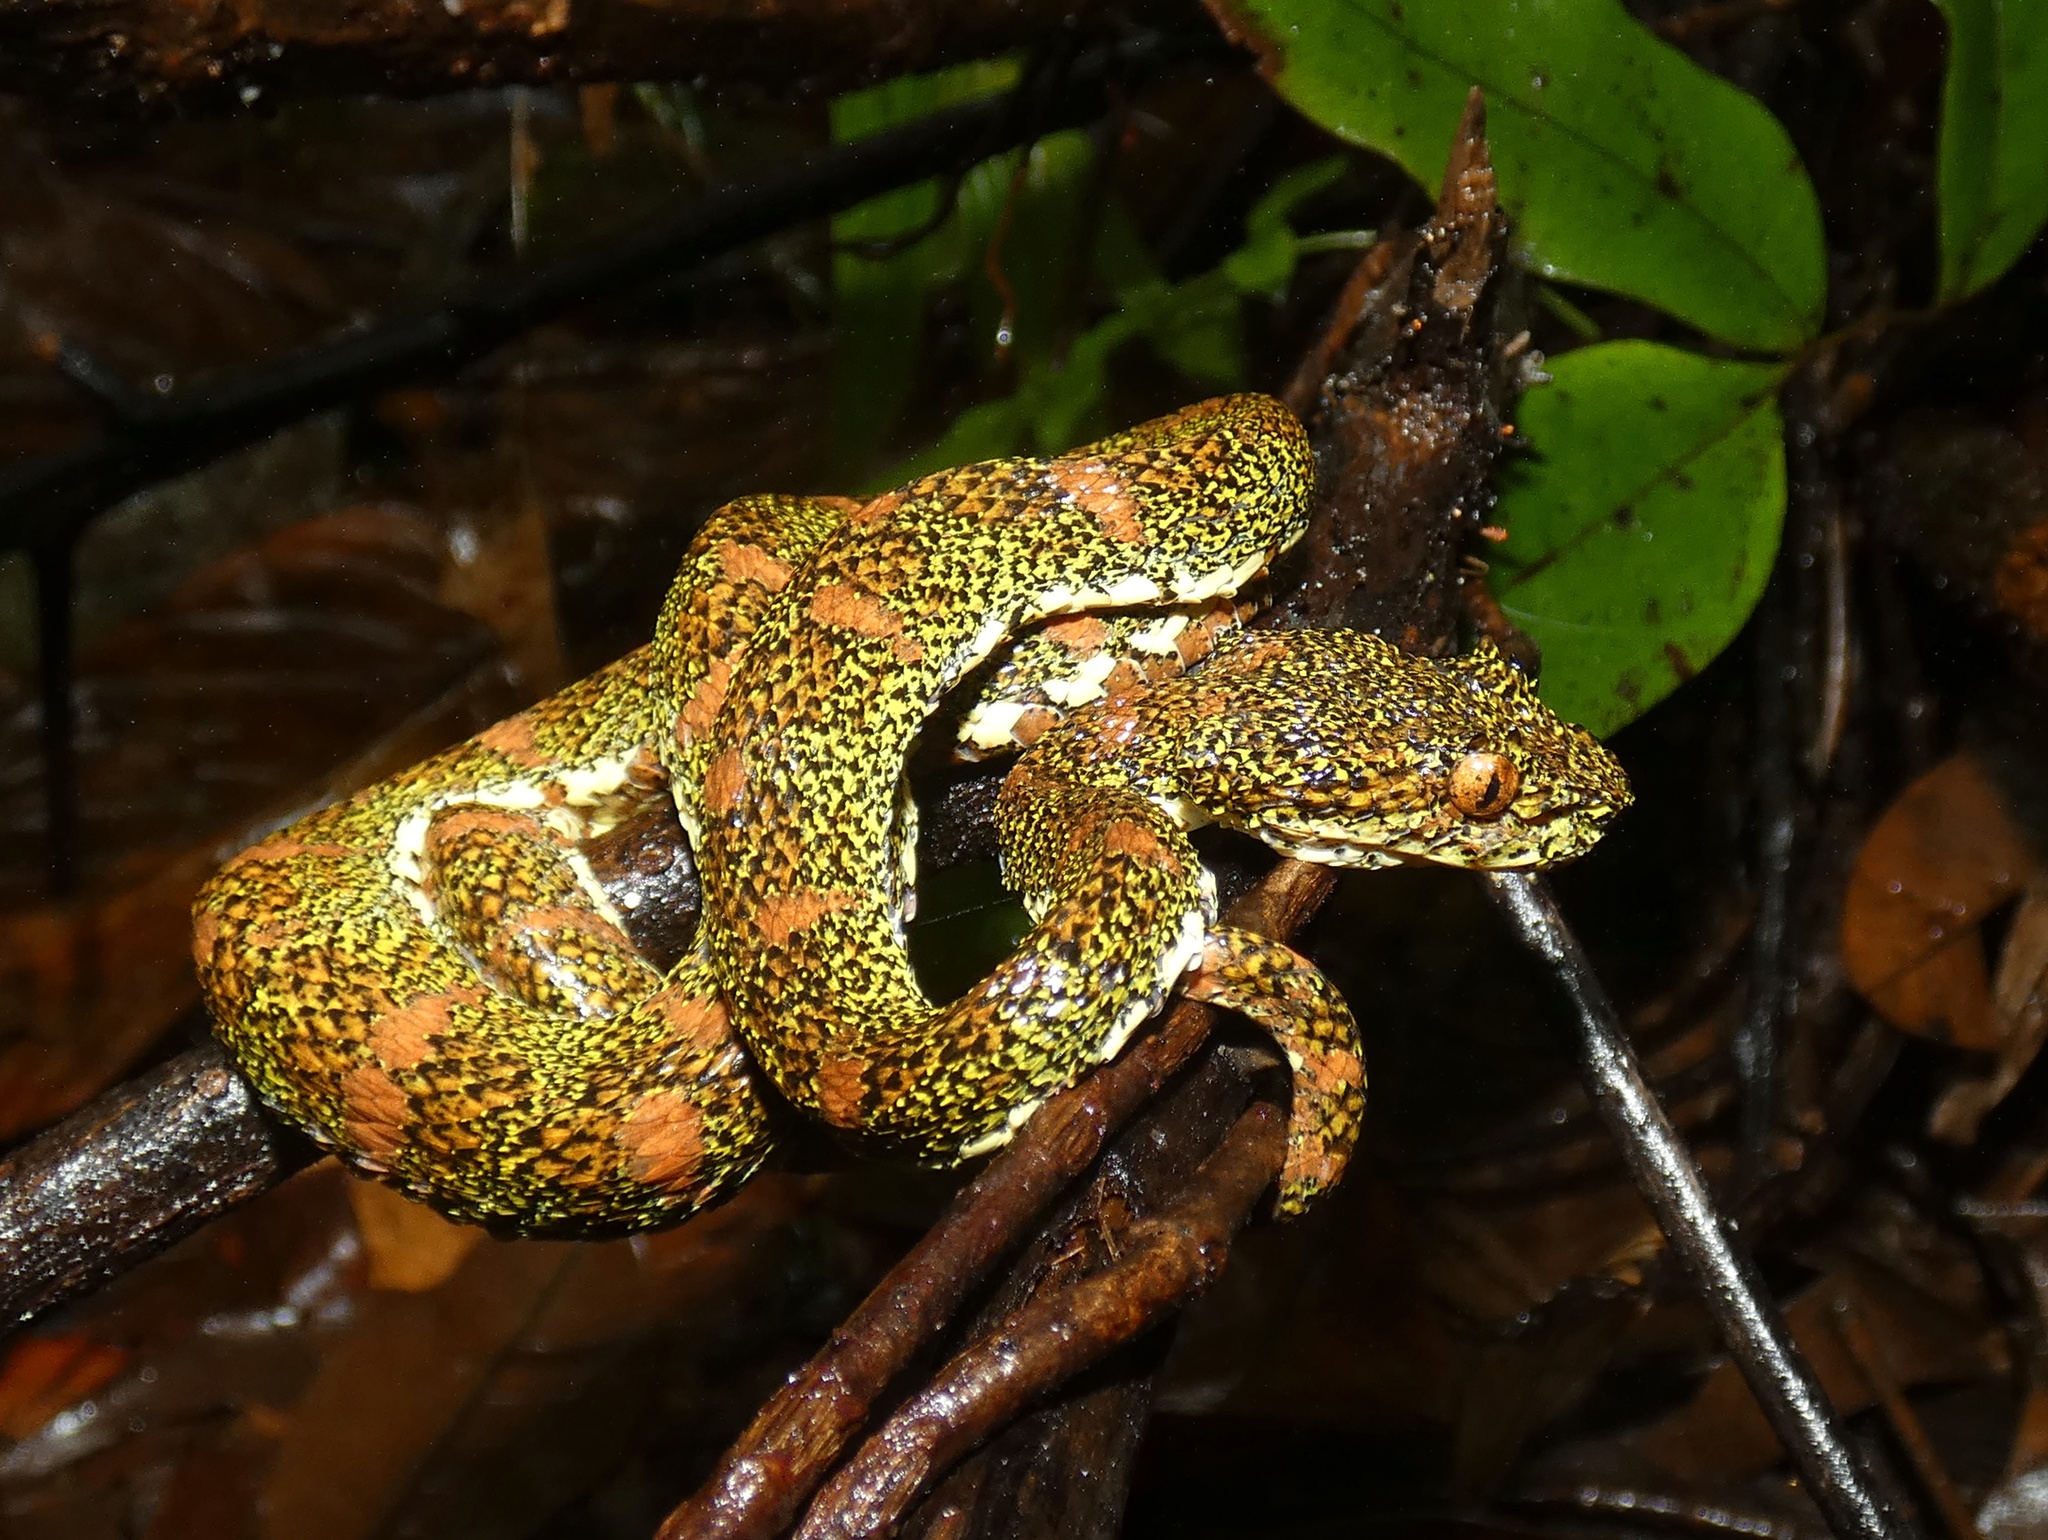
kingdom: Animalia
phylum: Chordata
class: Squamata
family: Viperidae
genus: Bothriechis
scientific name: Bothriechis schlegelii
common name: Eyelash viper
